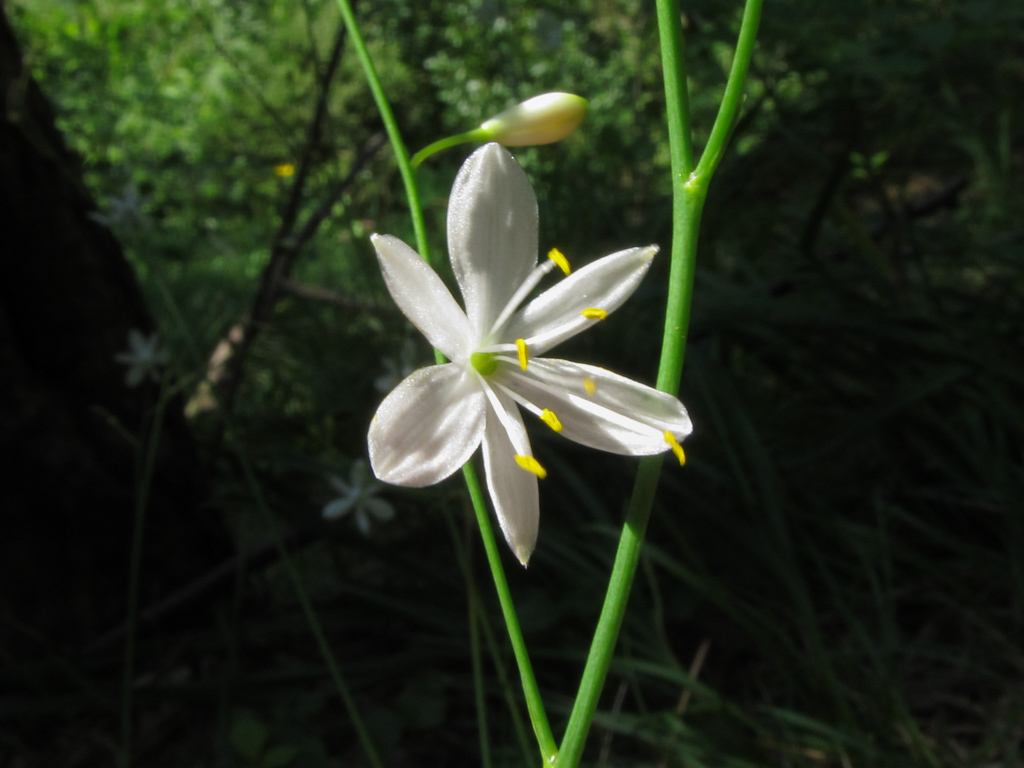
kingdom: Plantae
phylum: Tracheophyta
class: Liliopsida
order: Asparagales
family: Asparagaceae
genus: Anthericum
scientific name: Anthericum ramosum
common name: Branched st. bernard's-lily
